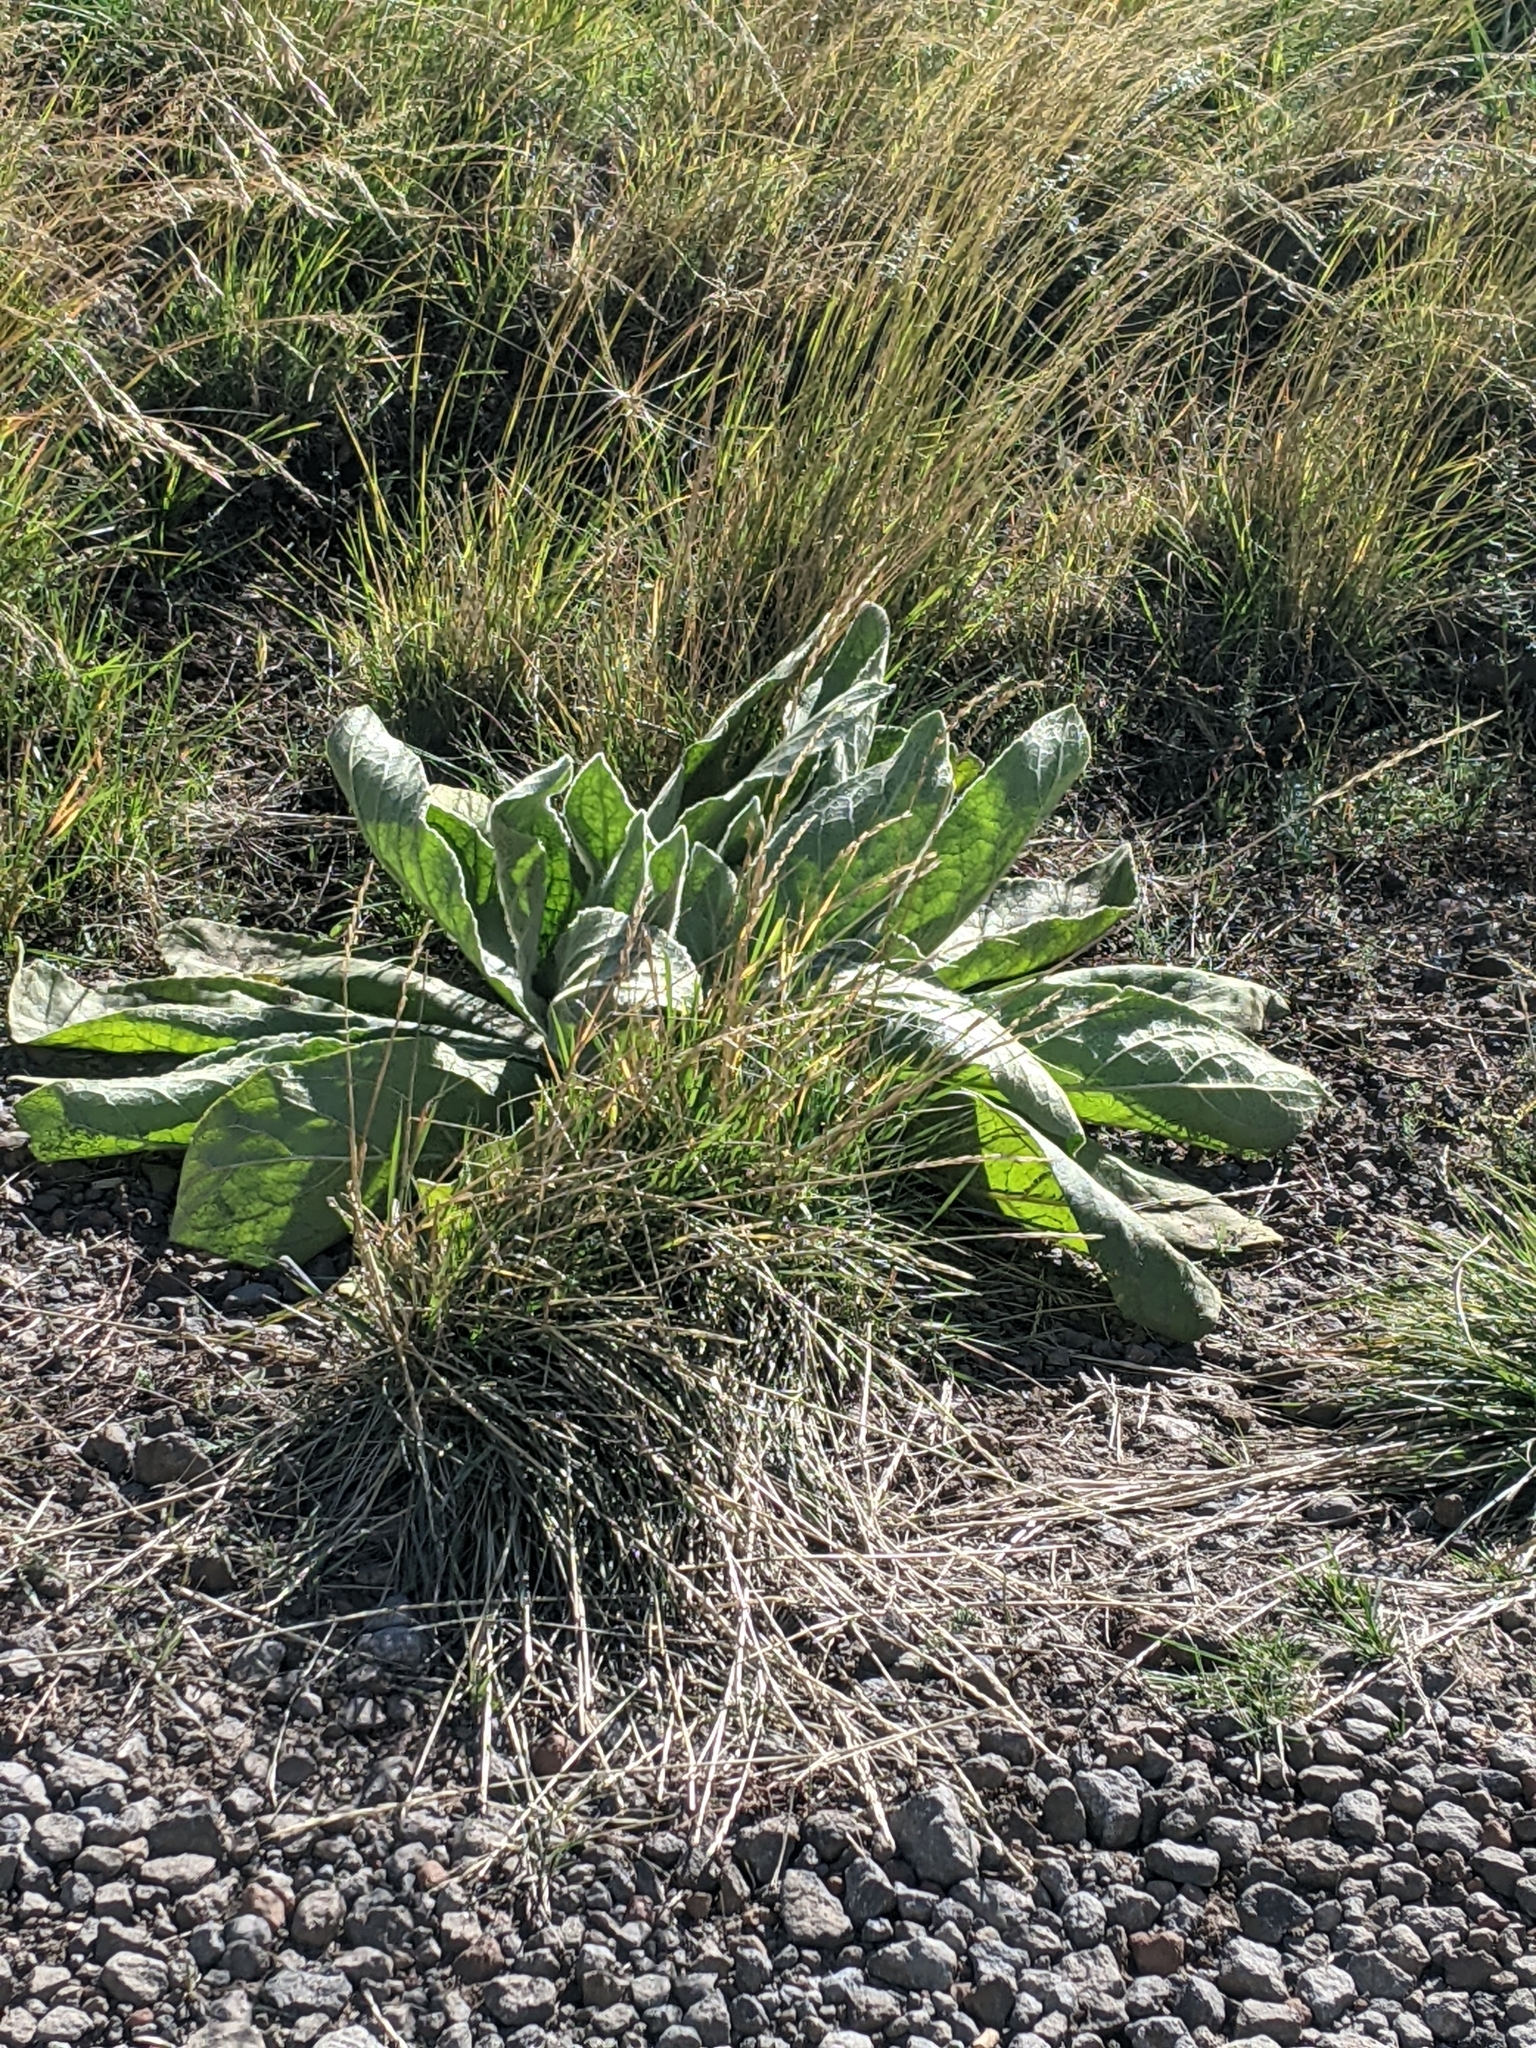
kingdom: Plantae
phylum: Tracheophyta
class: Magnoliopsida
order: Lamiales
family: Scrophulariaceae
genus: Verbascum
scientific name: Verbascum thapsus
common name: Common mullein
